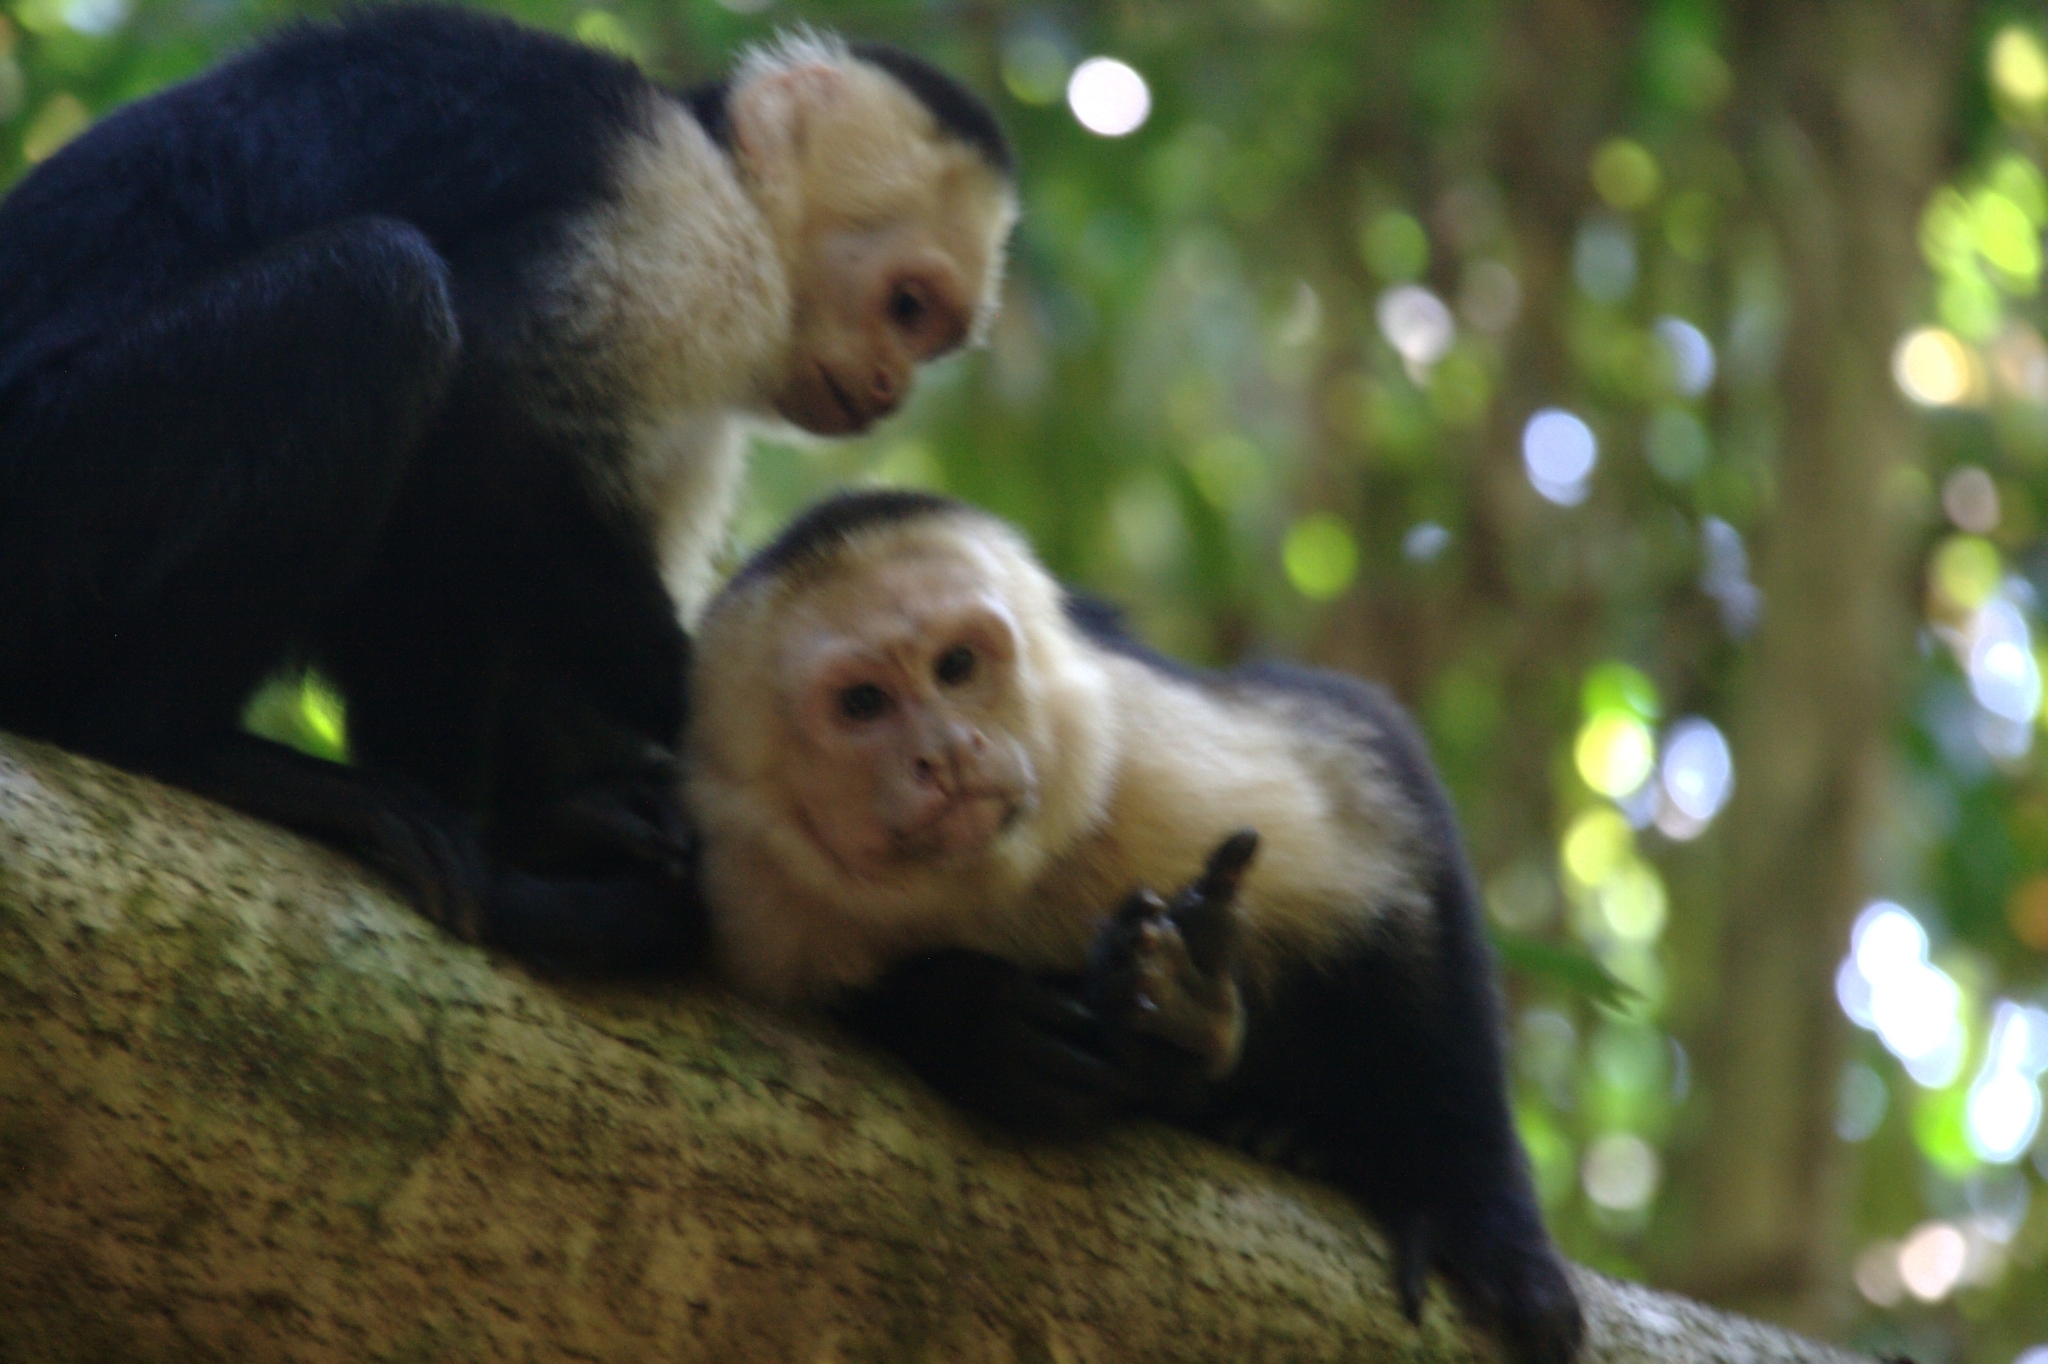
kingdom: Animalia
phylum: Chordata
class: Mammalia
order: Primates
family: Cebidae
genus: Cebus
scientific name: Cebus imitator
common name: Panamanian white-faced capuchin
